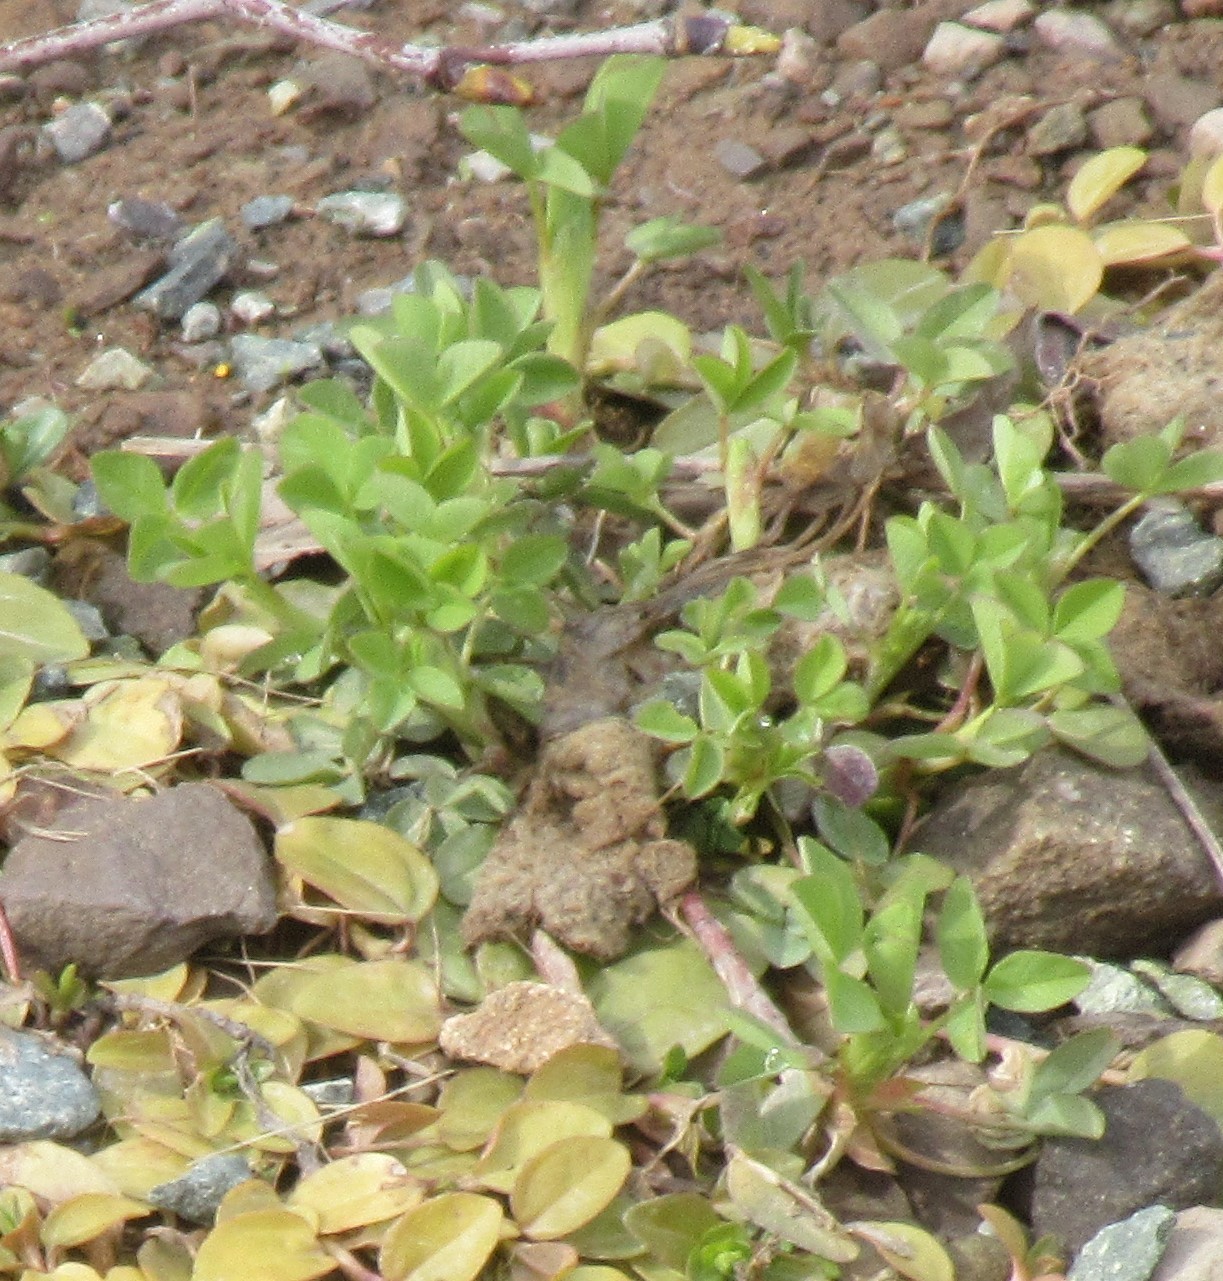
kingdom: Plantae
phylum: Tracheophyta
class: Magnoliopsida
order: Fabales
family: Fabaceae
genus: Trifolium
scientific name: Trifolium pratense
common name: Red clover
